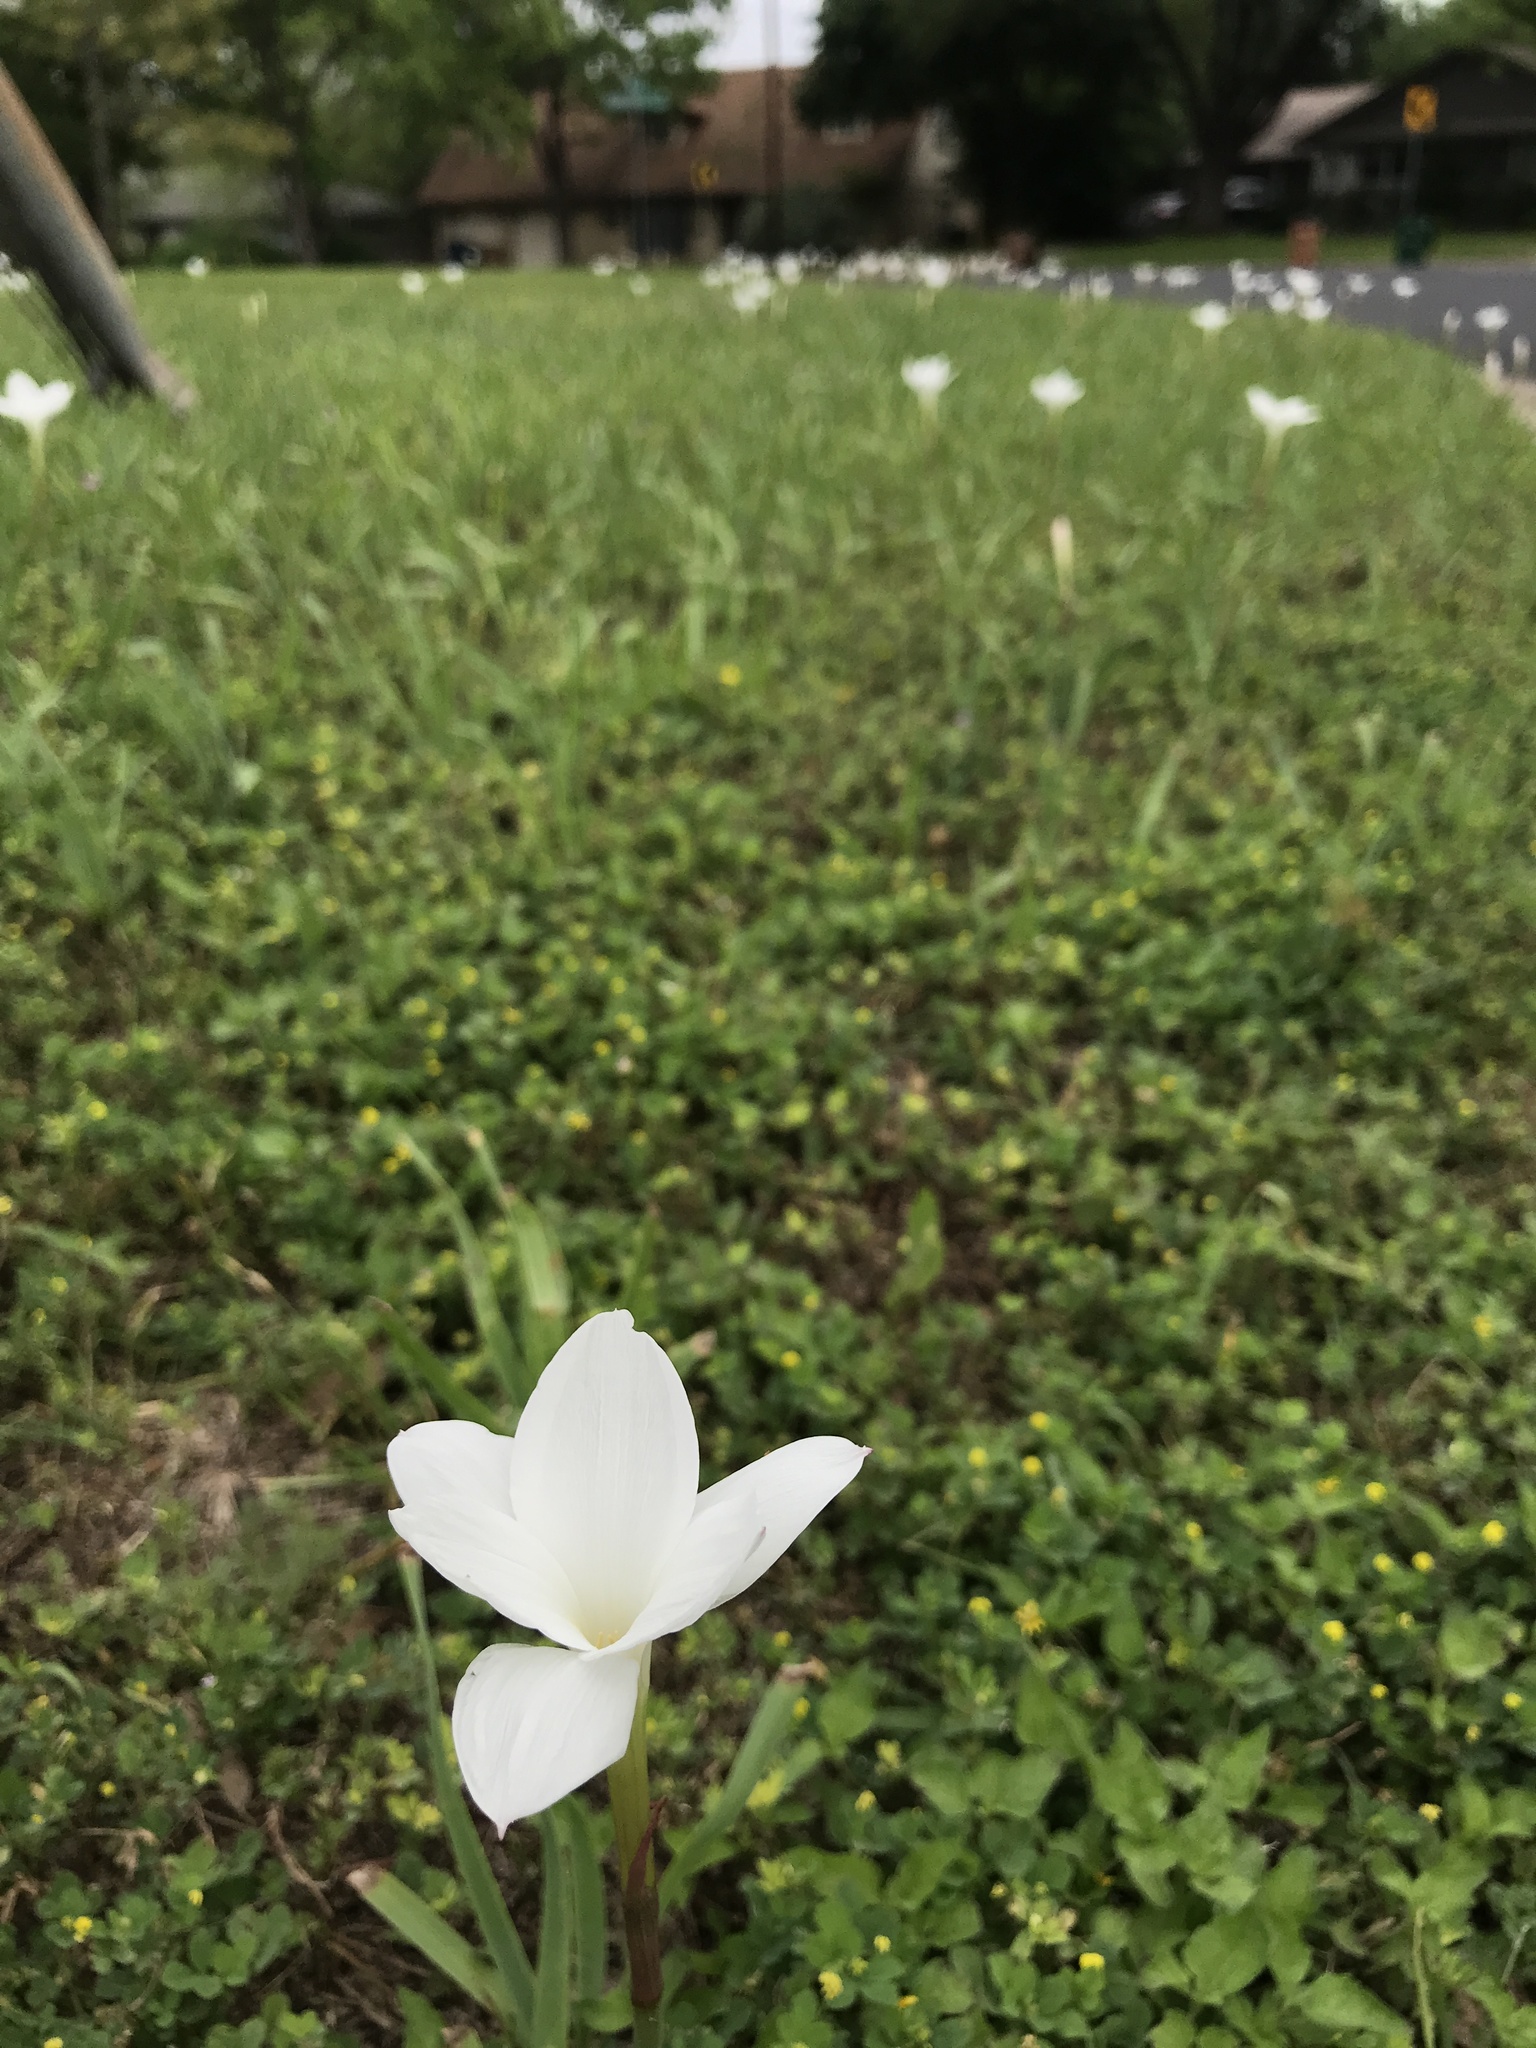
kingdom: Plantae
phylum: Tracheophyta
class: Liliopsida
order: Asparagales
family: Amaryllidaceae
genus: Zephyranthes
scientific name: Zephyranthes drummondii
